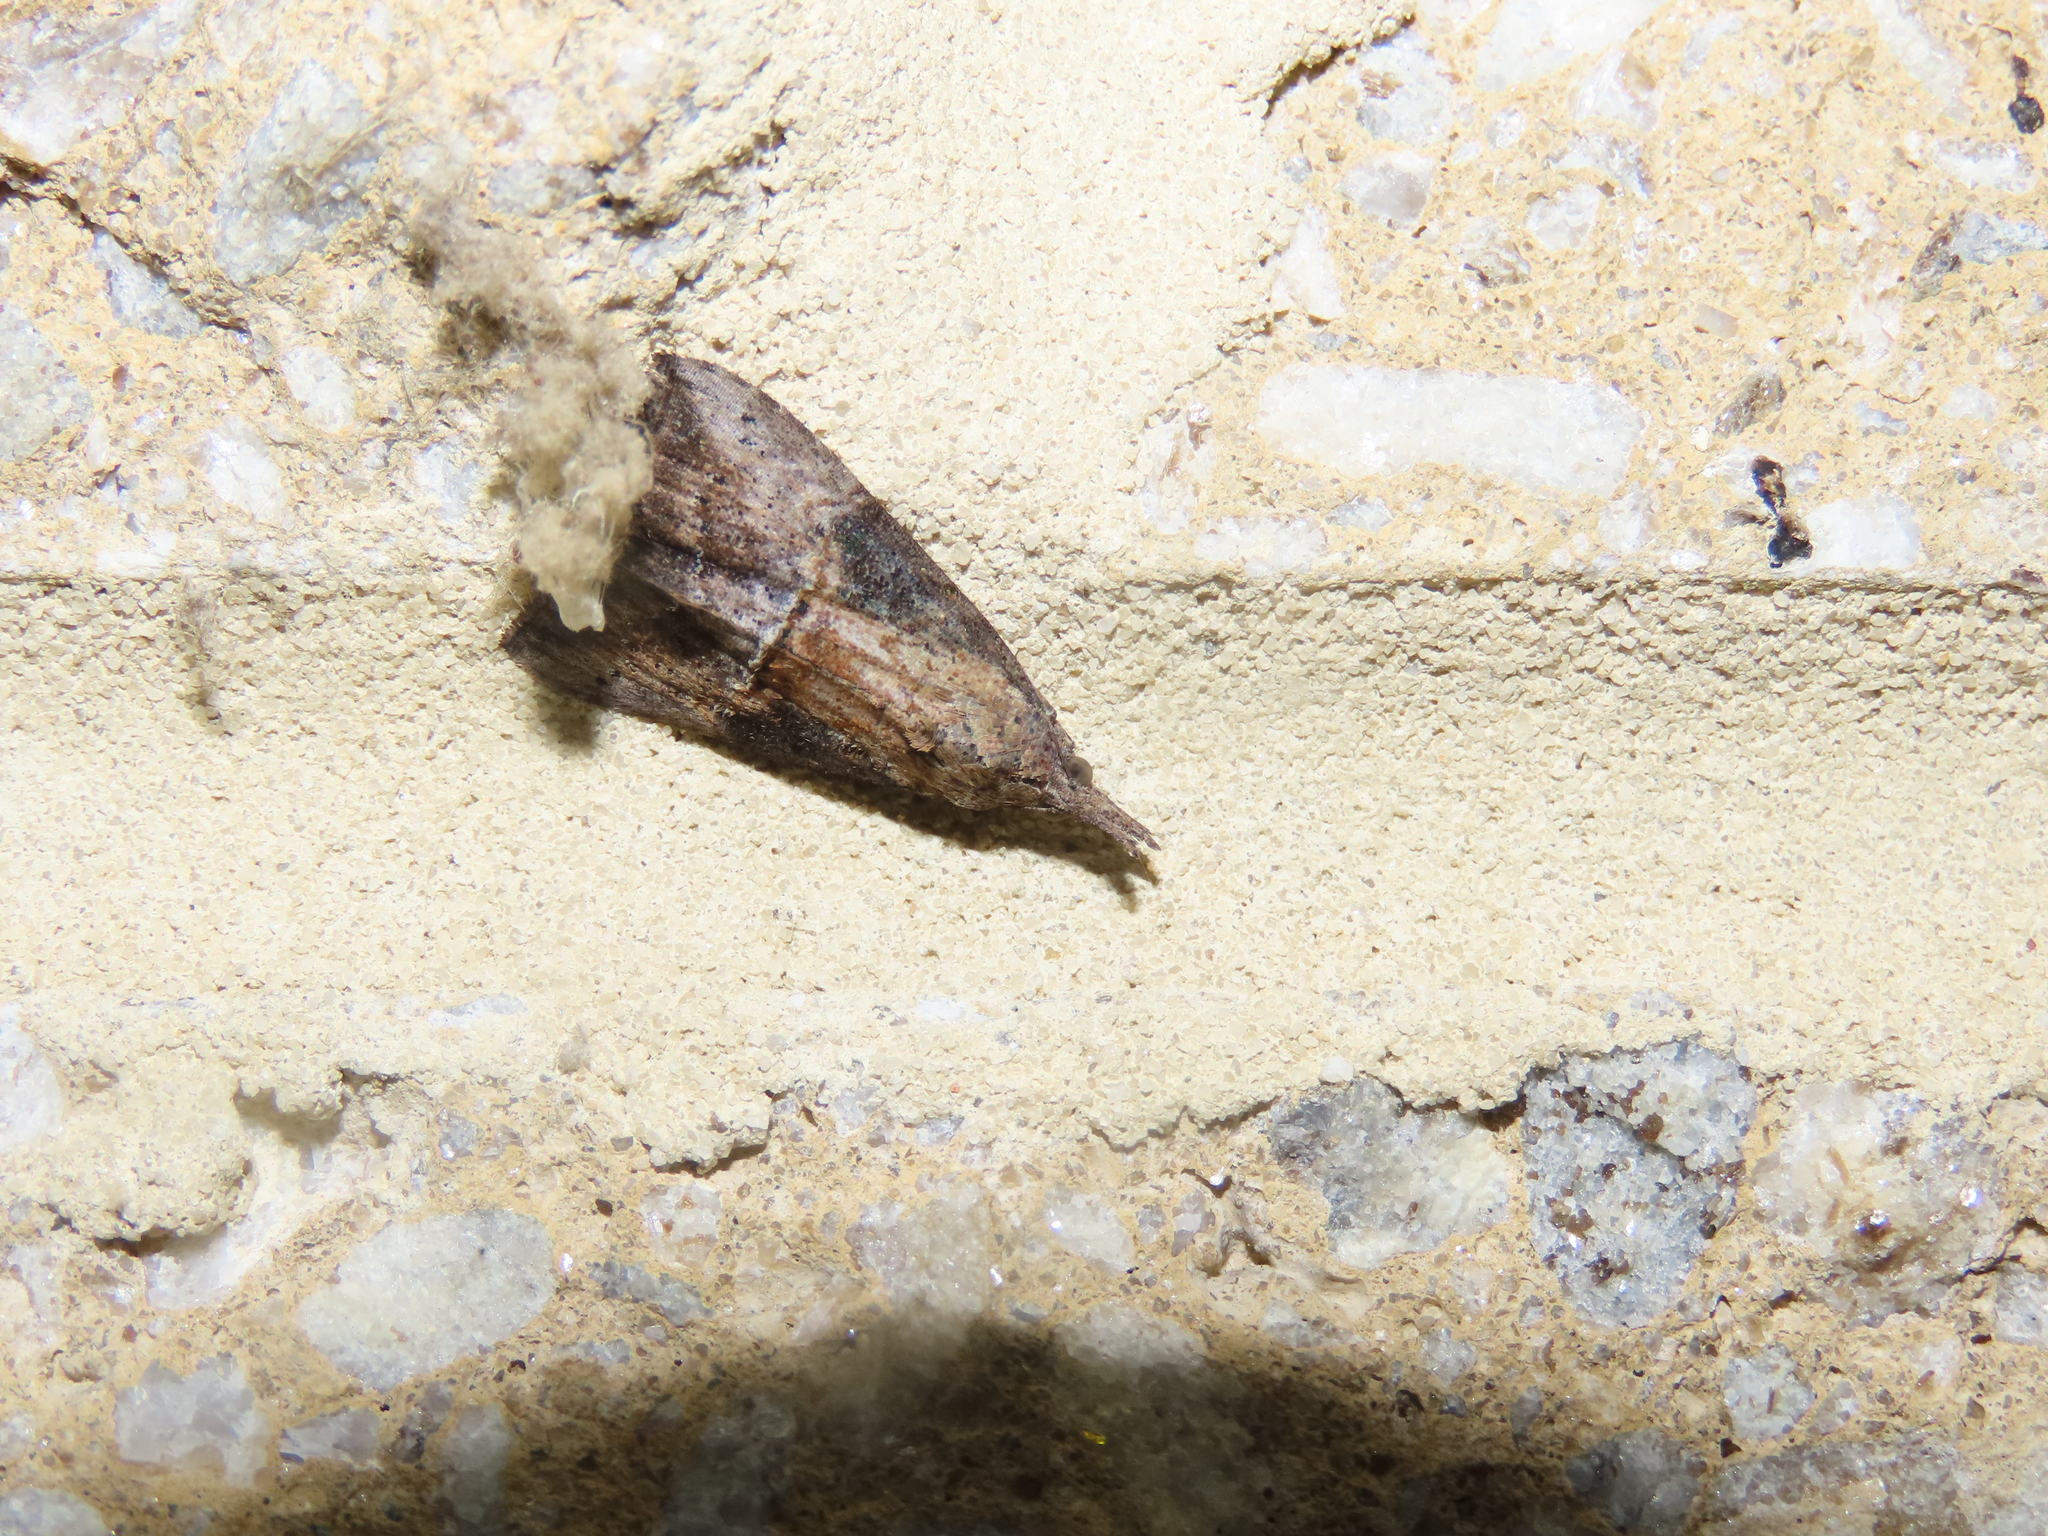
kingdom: Animalia
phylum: Arthropoda
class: Insecta
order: Lepidoptera
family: Erebidae
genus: Hypena
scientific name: Hypena scabra
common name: Green cloverworm
